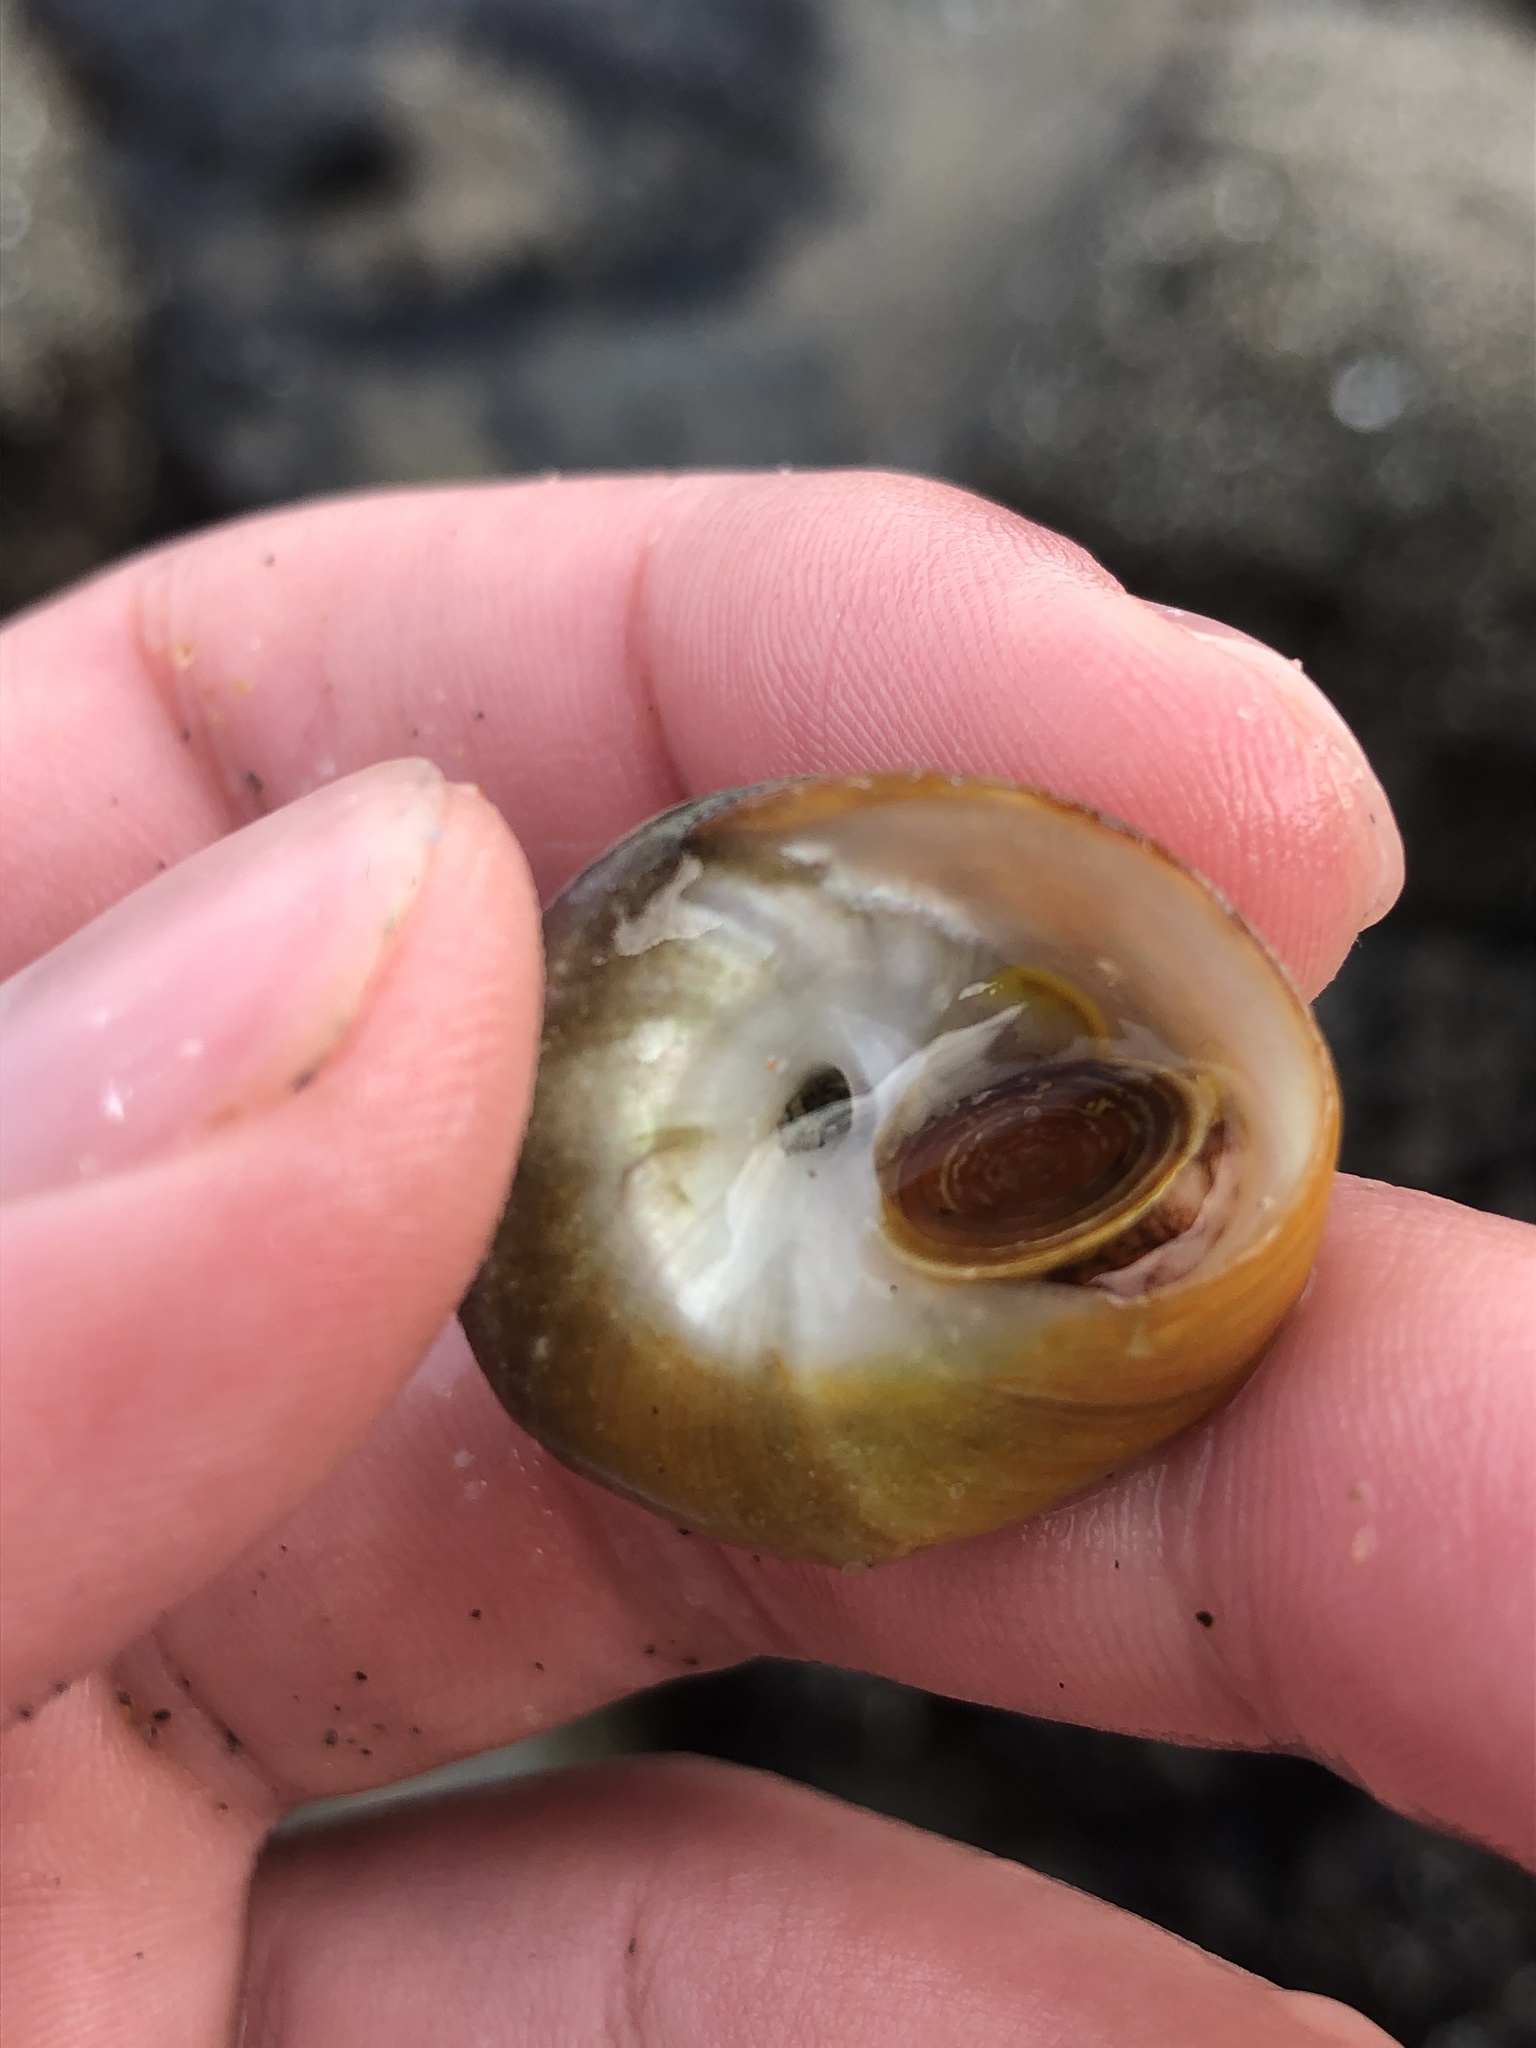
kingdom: Animalia
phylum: Mollusca
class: Gastropoda
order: Trochida
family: Tegulidae
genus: Tegula
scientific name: Tegula pulligo
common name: Brown turban
